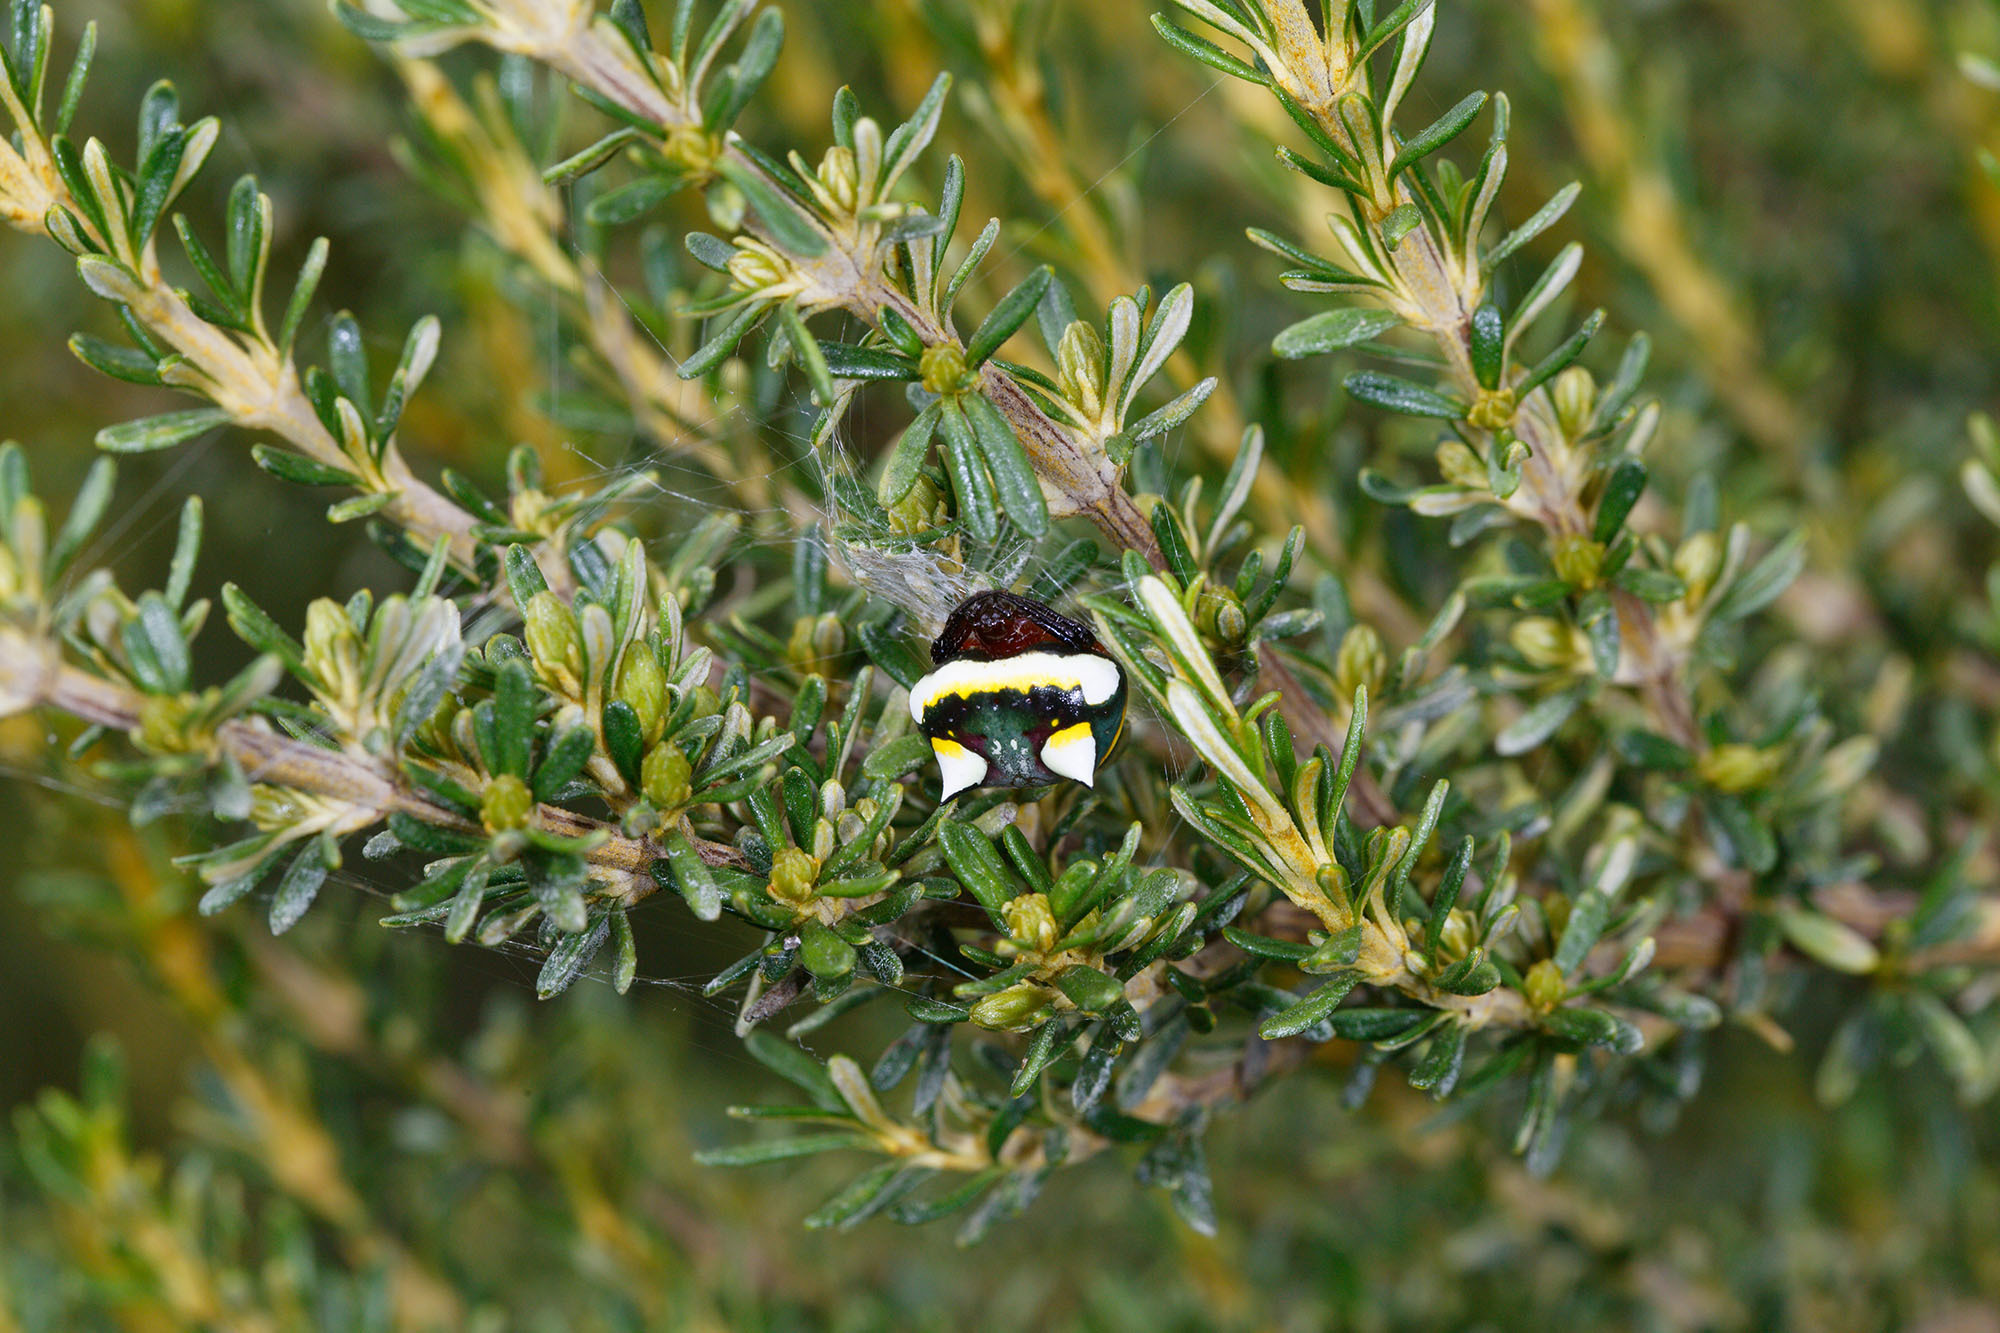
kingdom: Animalia
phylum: Arthropoda
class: Arachnida
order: Araneae
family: Araneidae
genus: Poecilopachys
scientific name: Poecilopachys australasia
